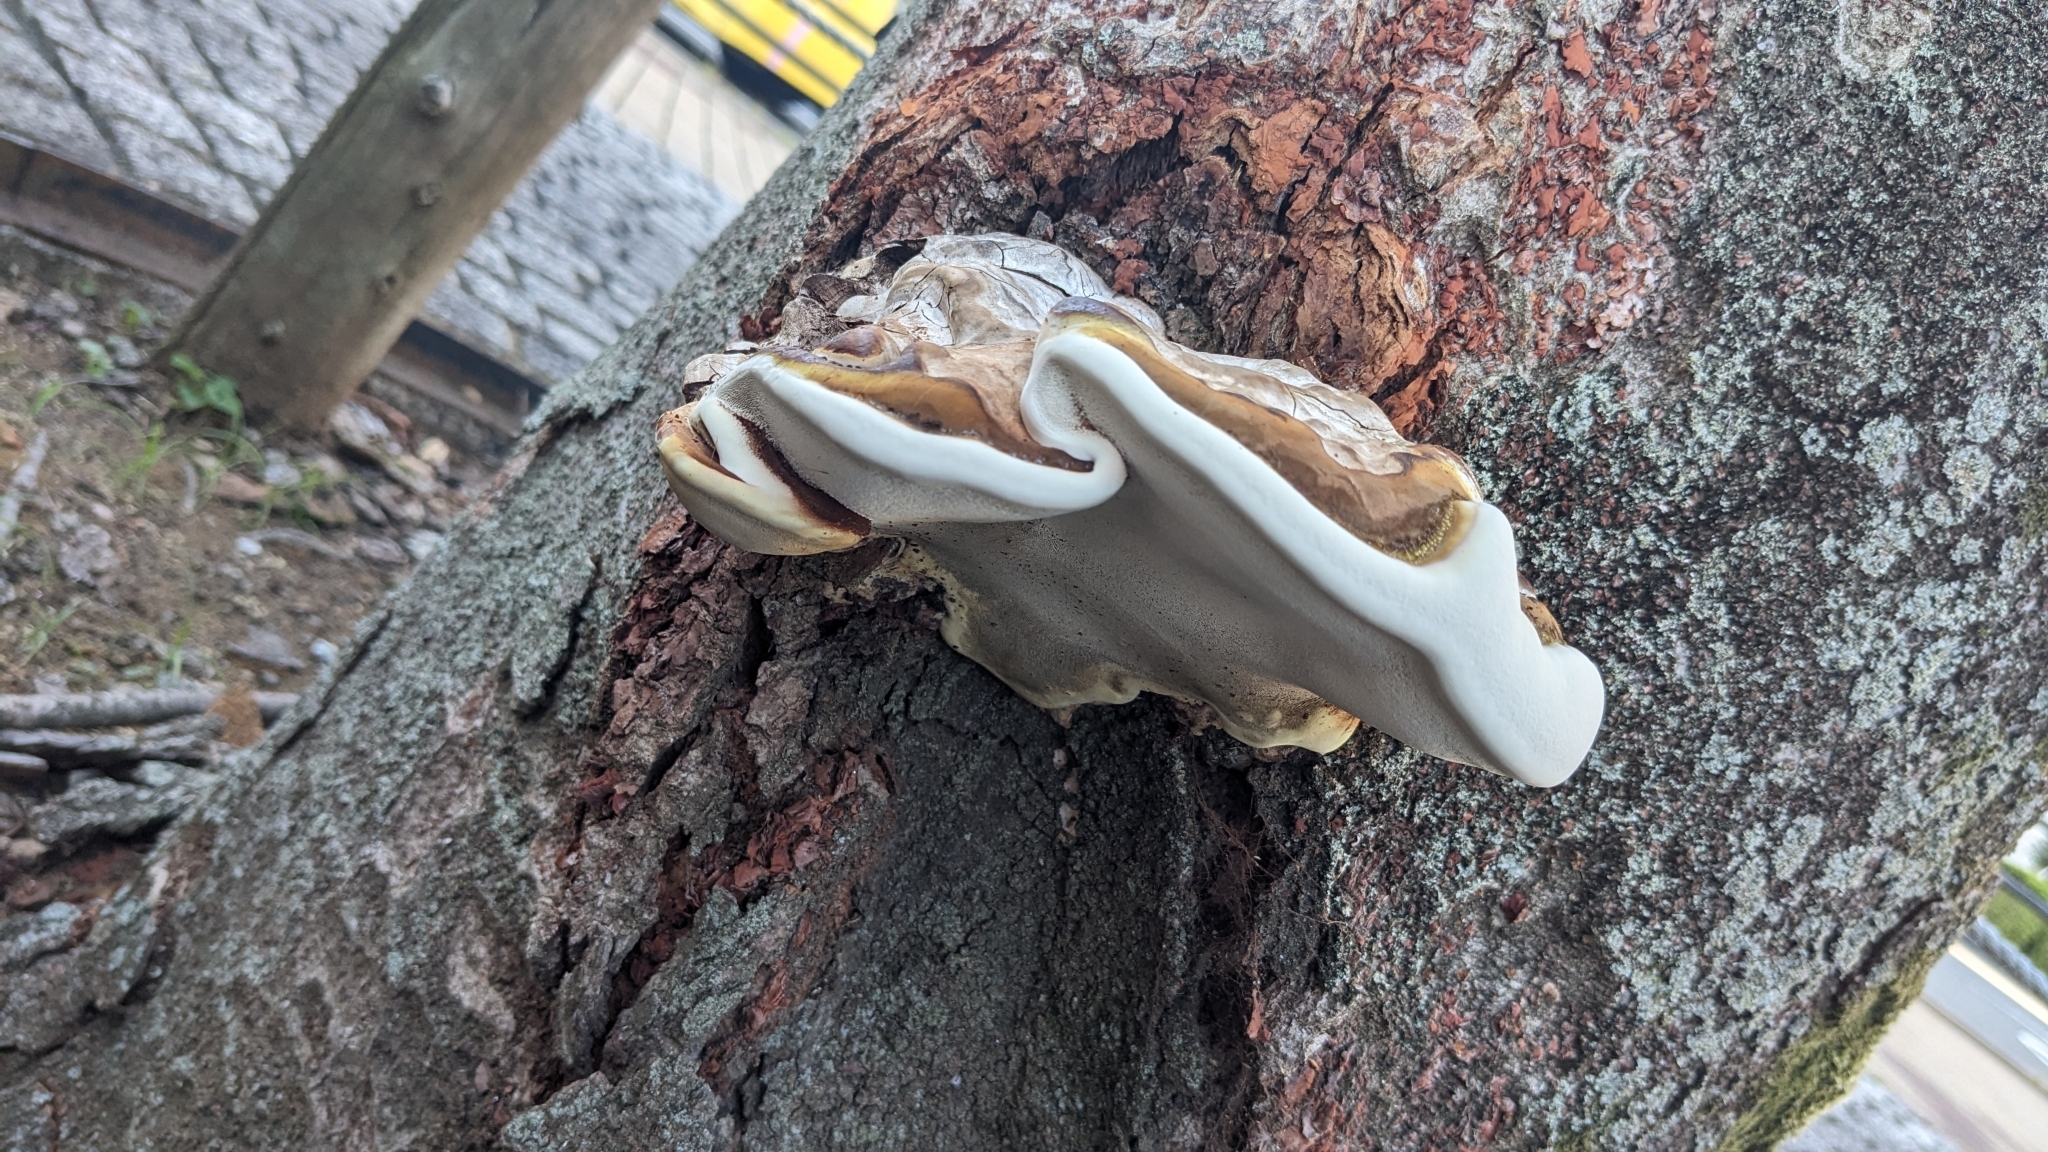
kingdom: Fungi
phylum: Basidiomycota
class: Agaricomycetes
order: Polyporales
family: Polyporaceae
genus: Ganoderma
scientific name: Ganoderma applanatum
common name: Artist's bracket
